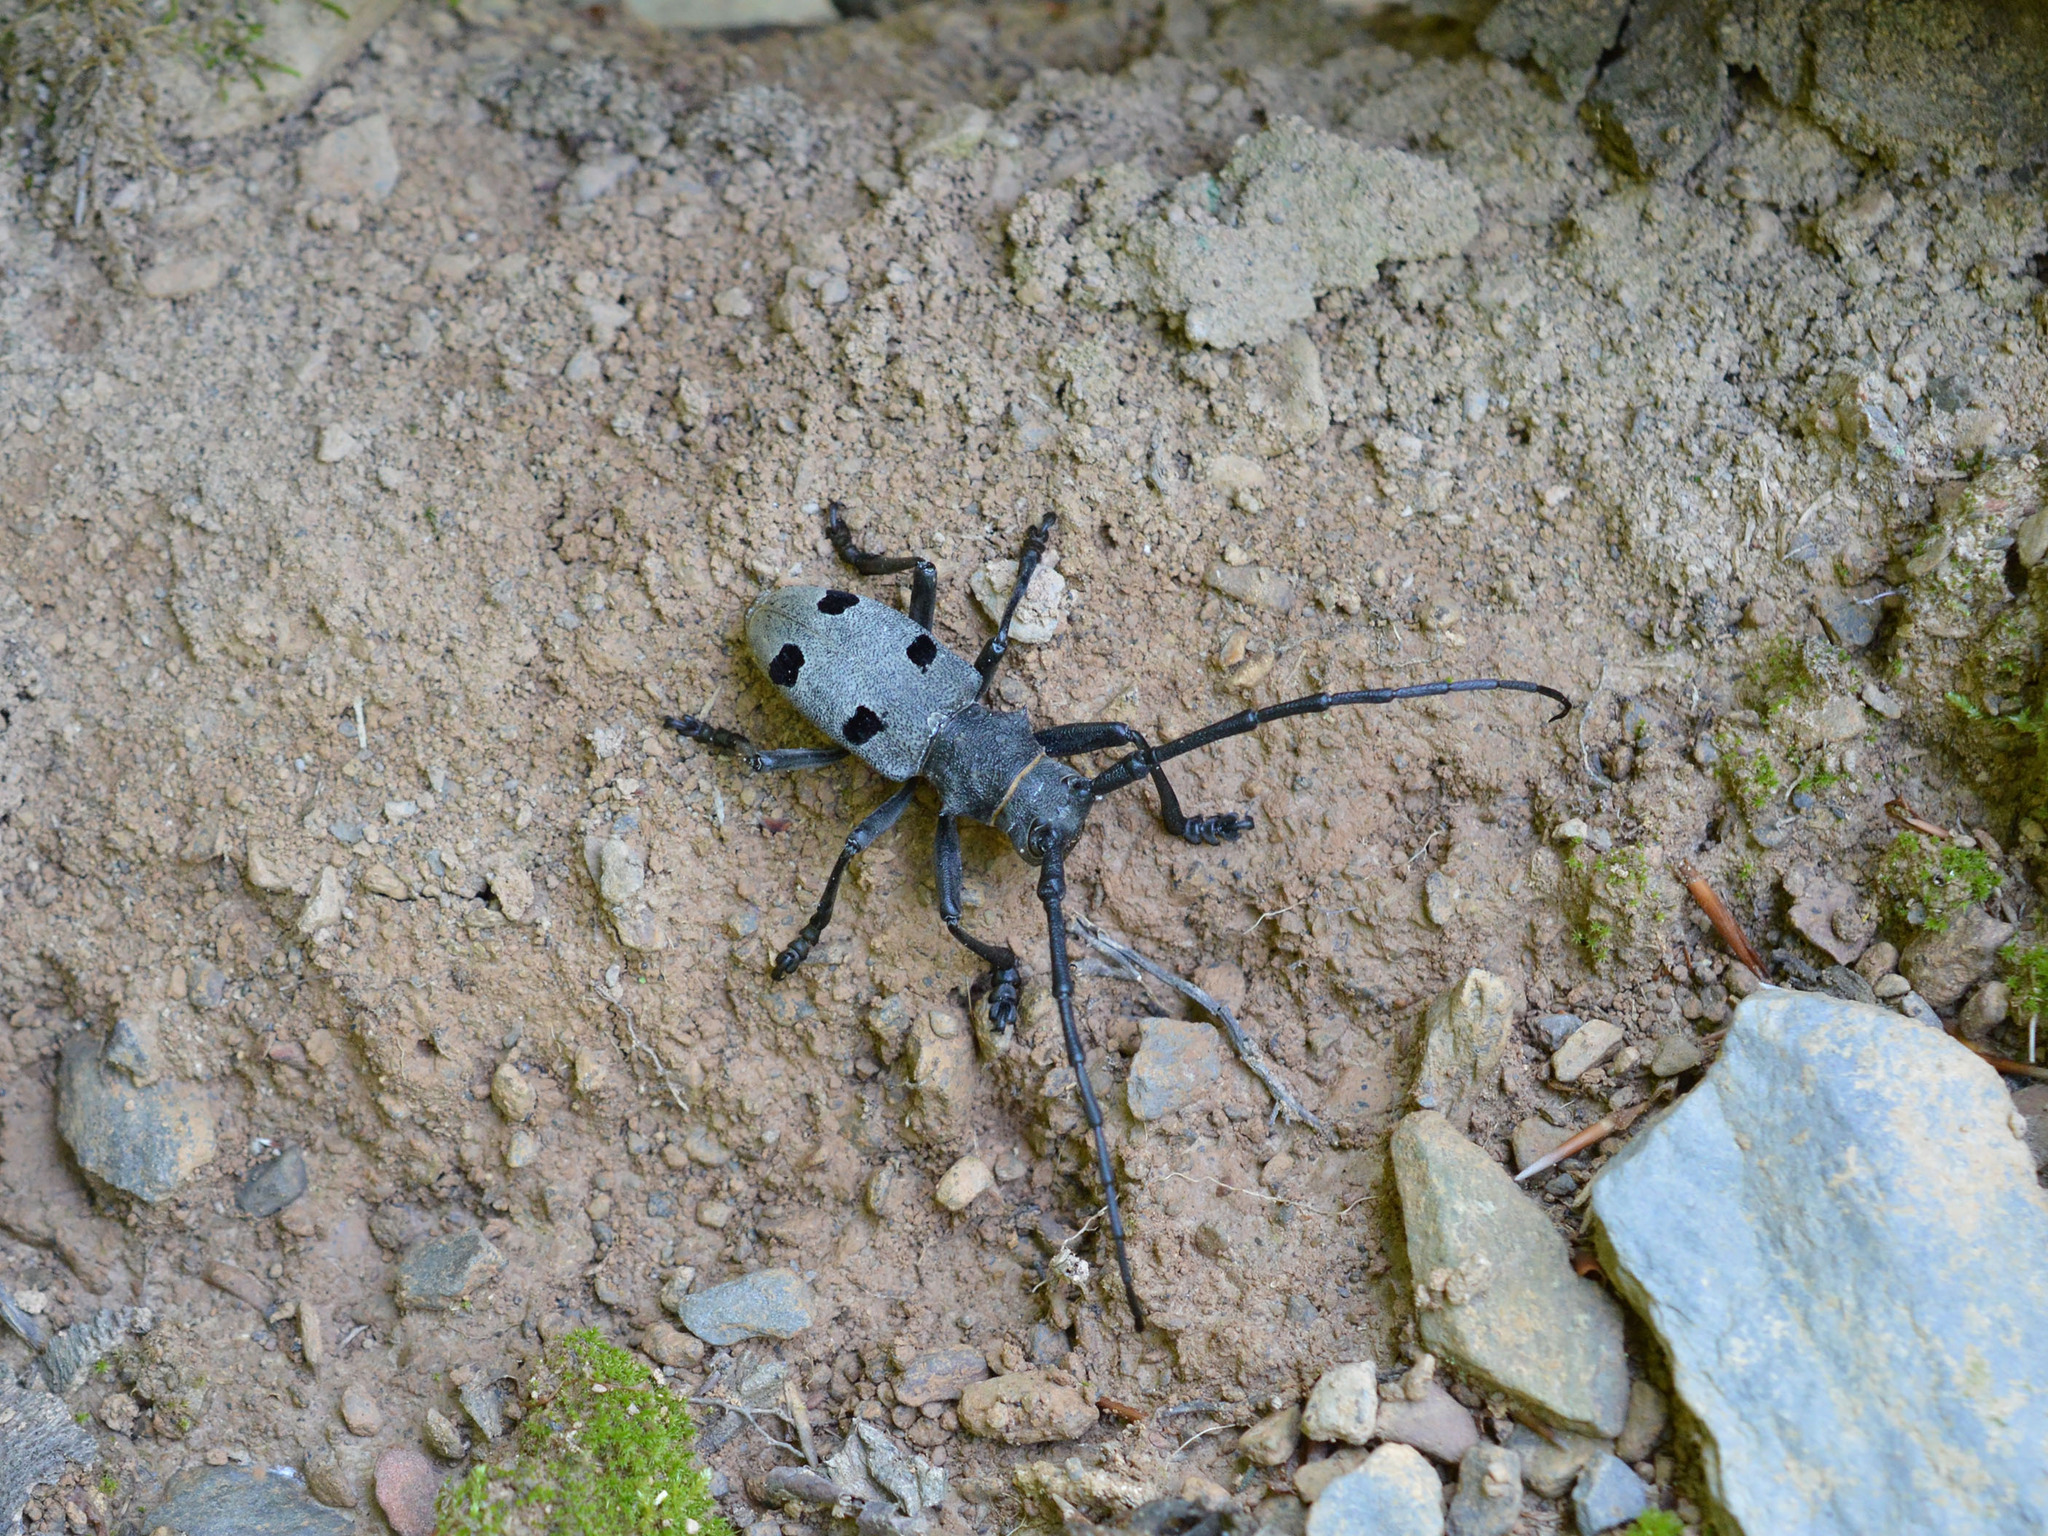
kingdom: Animalia
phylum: Arthropoda
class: Insecta
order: Coleoptera
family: Cerambycidae
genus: Morimus
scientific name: Morimus funereus
